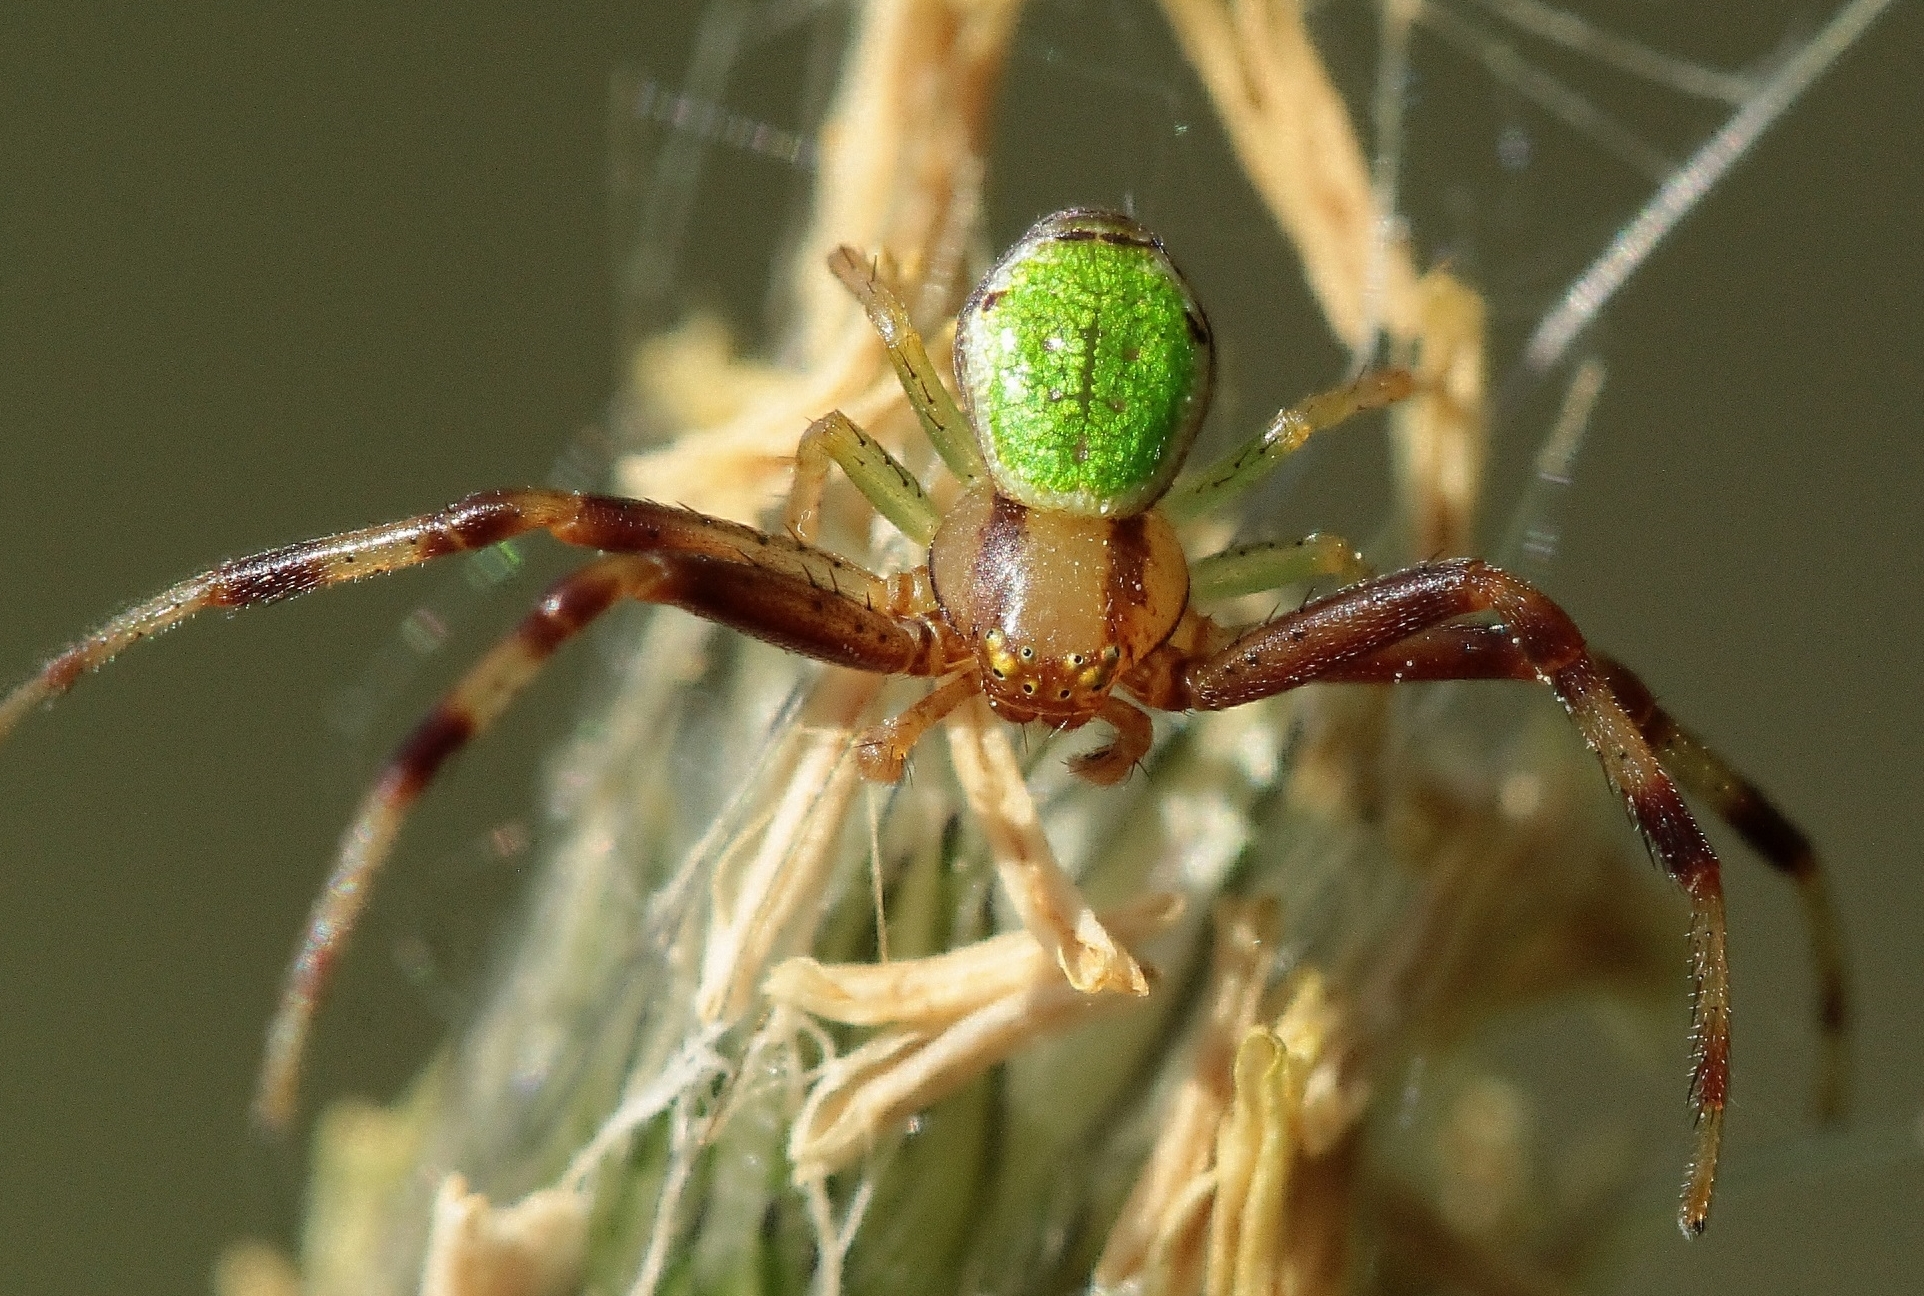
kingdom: Animalia
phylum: Arthropoda
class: Arachnida
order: Araneae
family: Thomisidae
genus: Ebrechtella
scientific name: Ebrechtella tricuspidata
